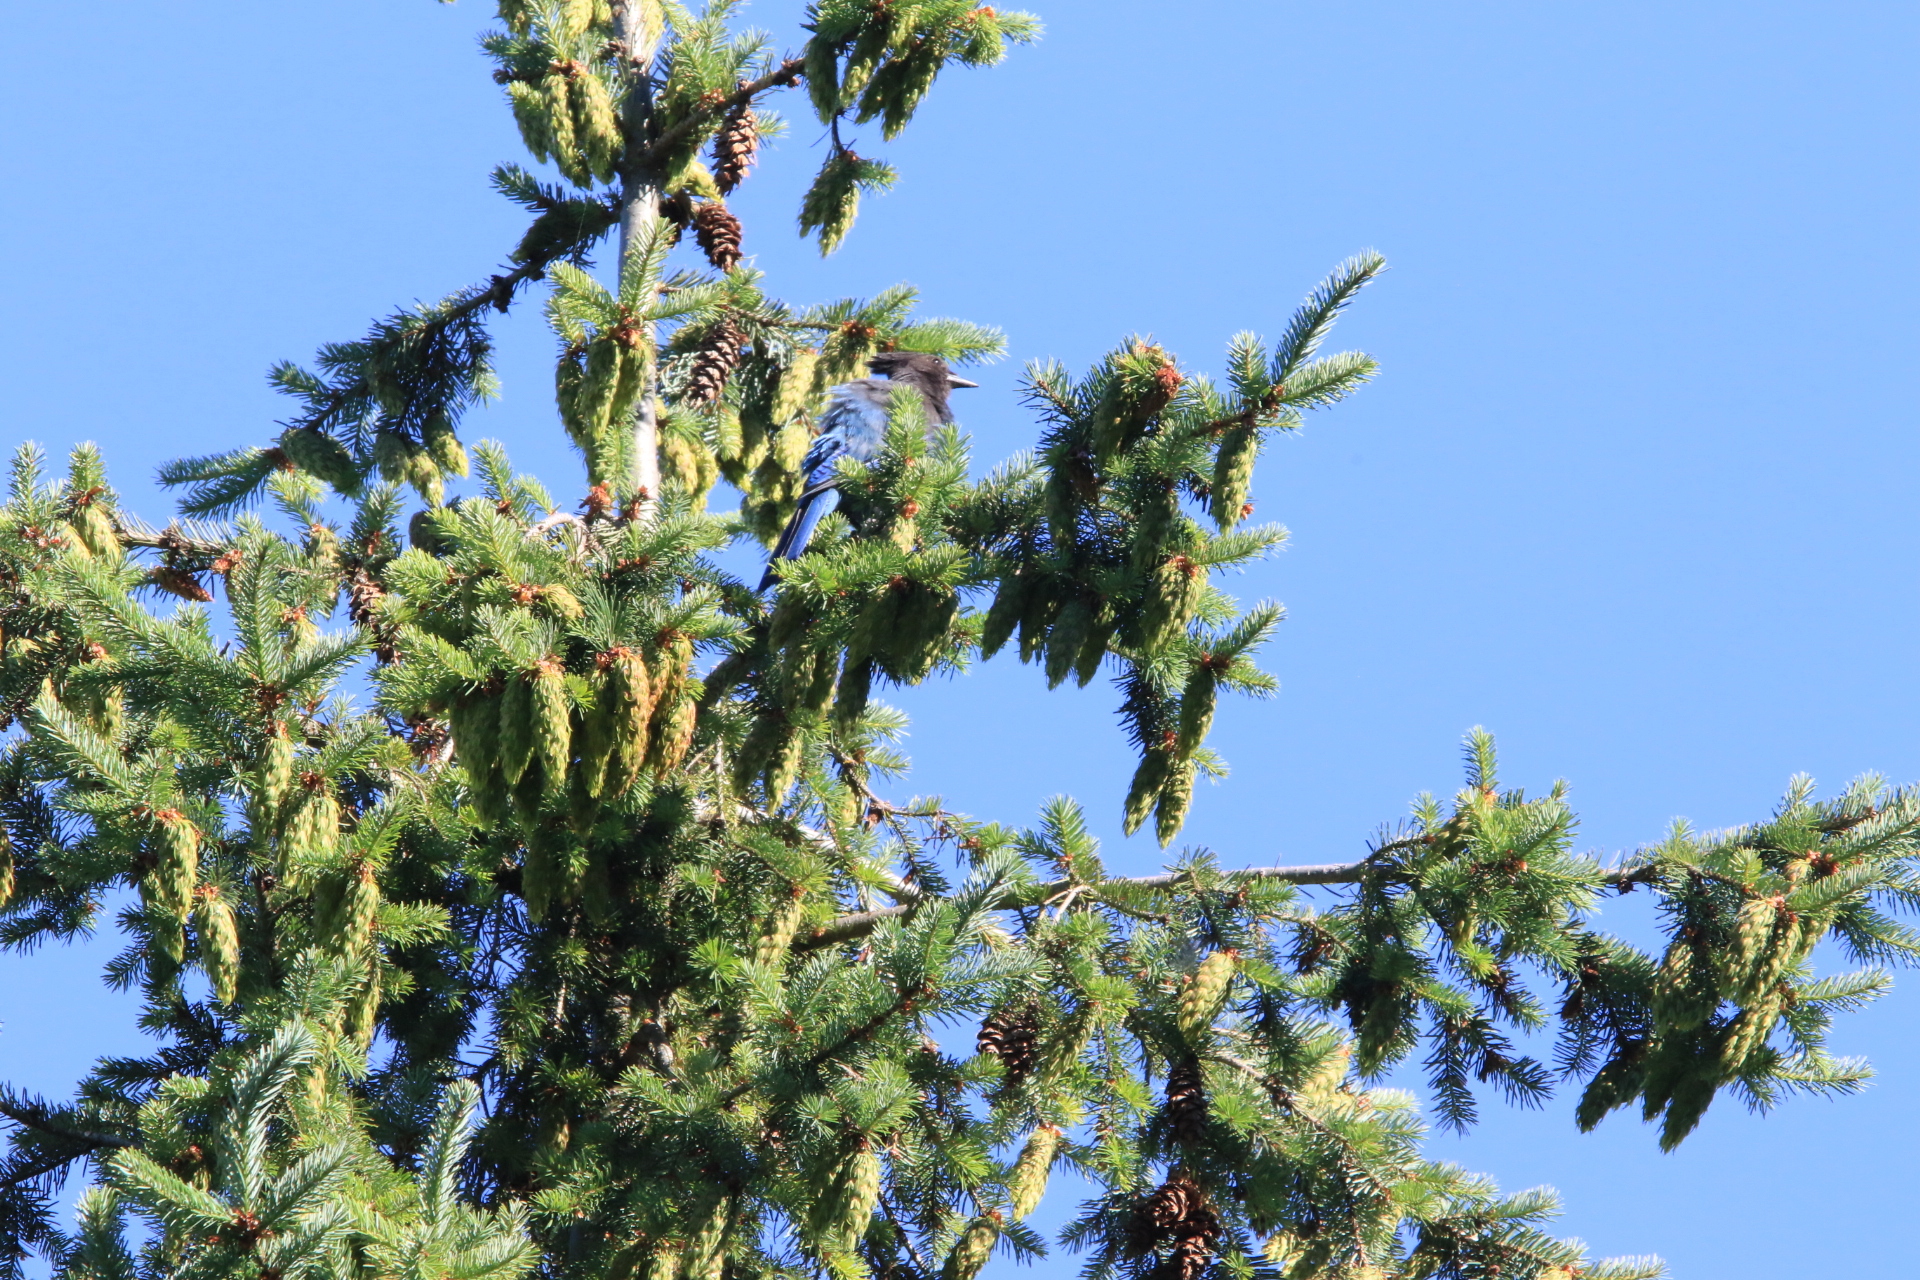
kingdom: Animalia
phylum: Chordata
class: Aves
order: Passeriformes
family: Corvidae
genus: Cyanocitta
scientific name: Cyanocitta stelleri
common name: Steller's jay
